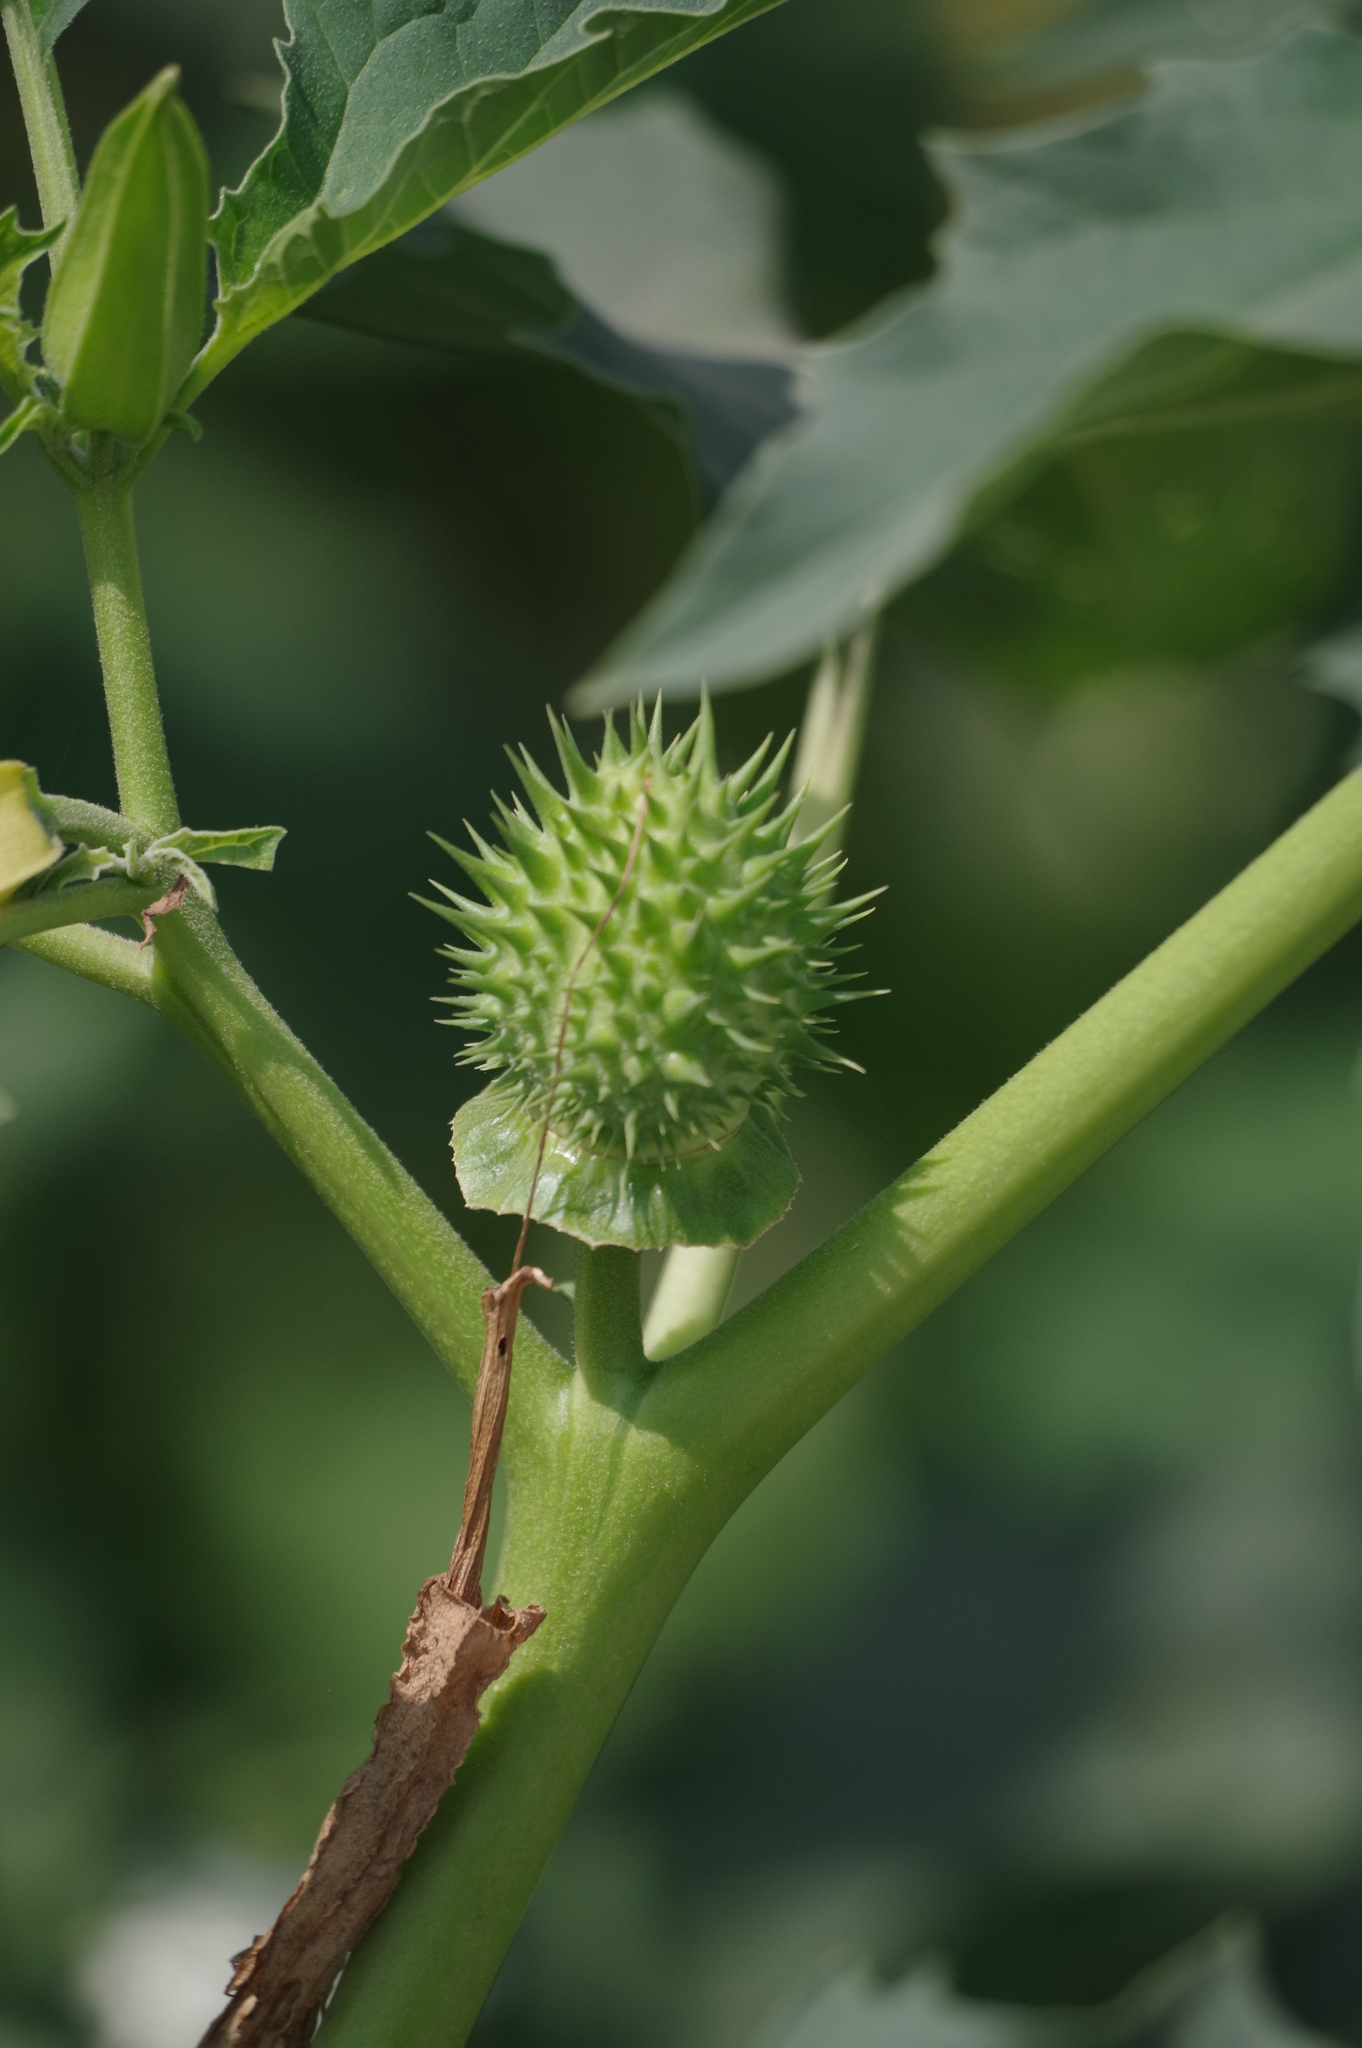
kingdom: Plantae
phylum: Tracheophyta
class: Magnoliopsida
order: Solanales
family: Solanaceae
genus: Datura
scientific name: Datura stramonium
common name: Thorn-apple
